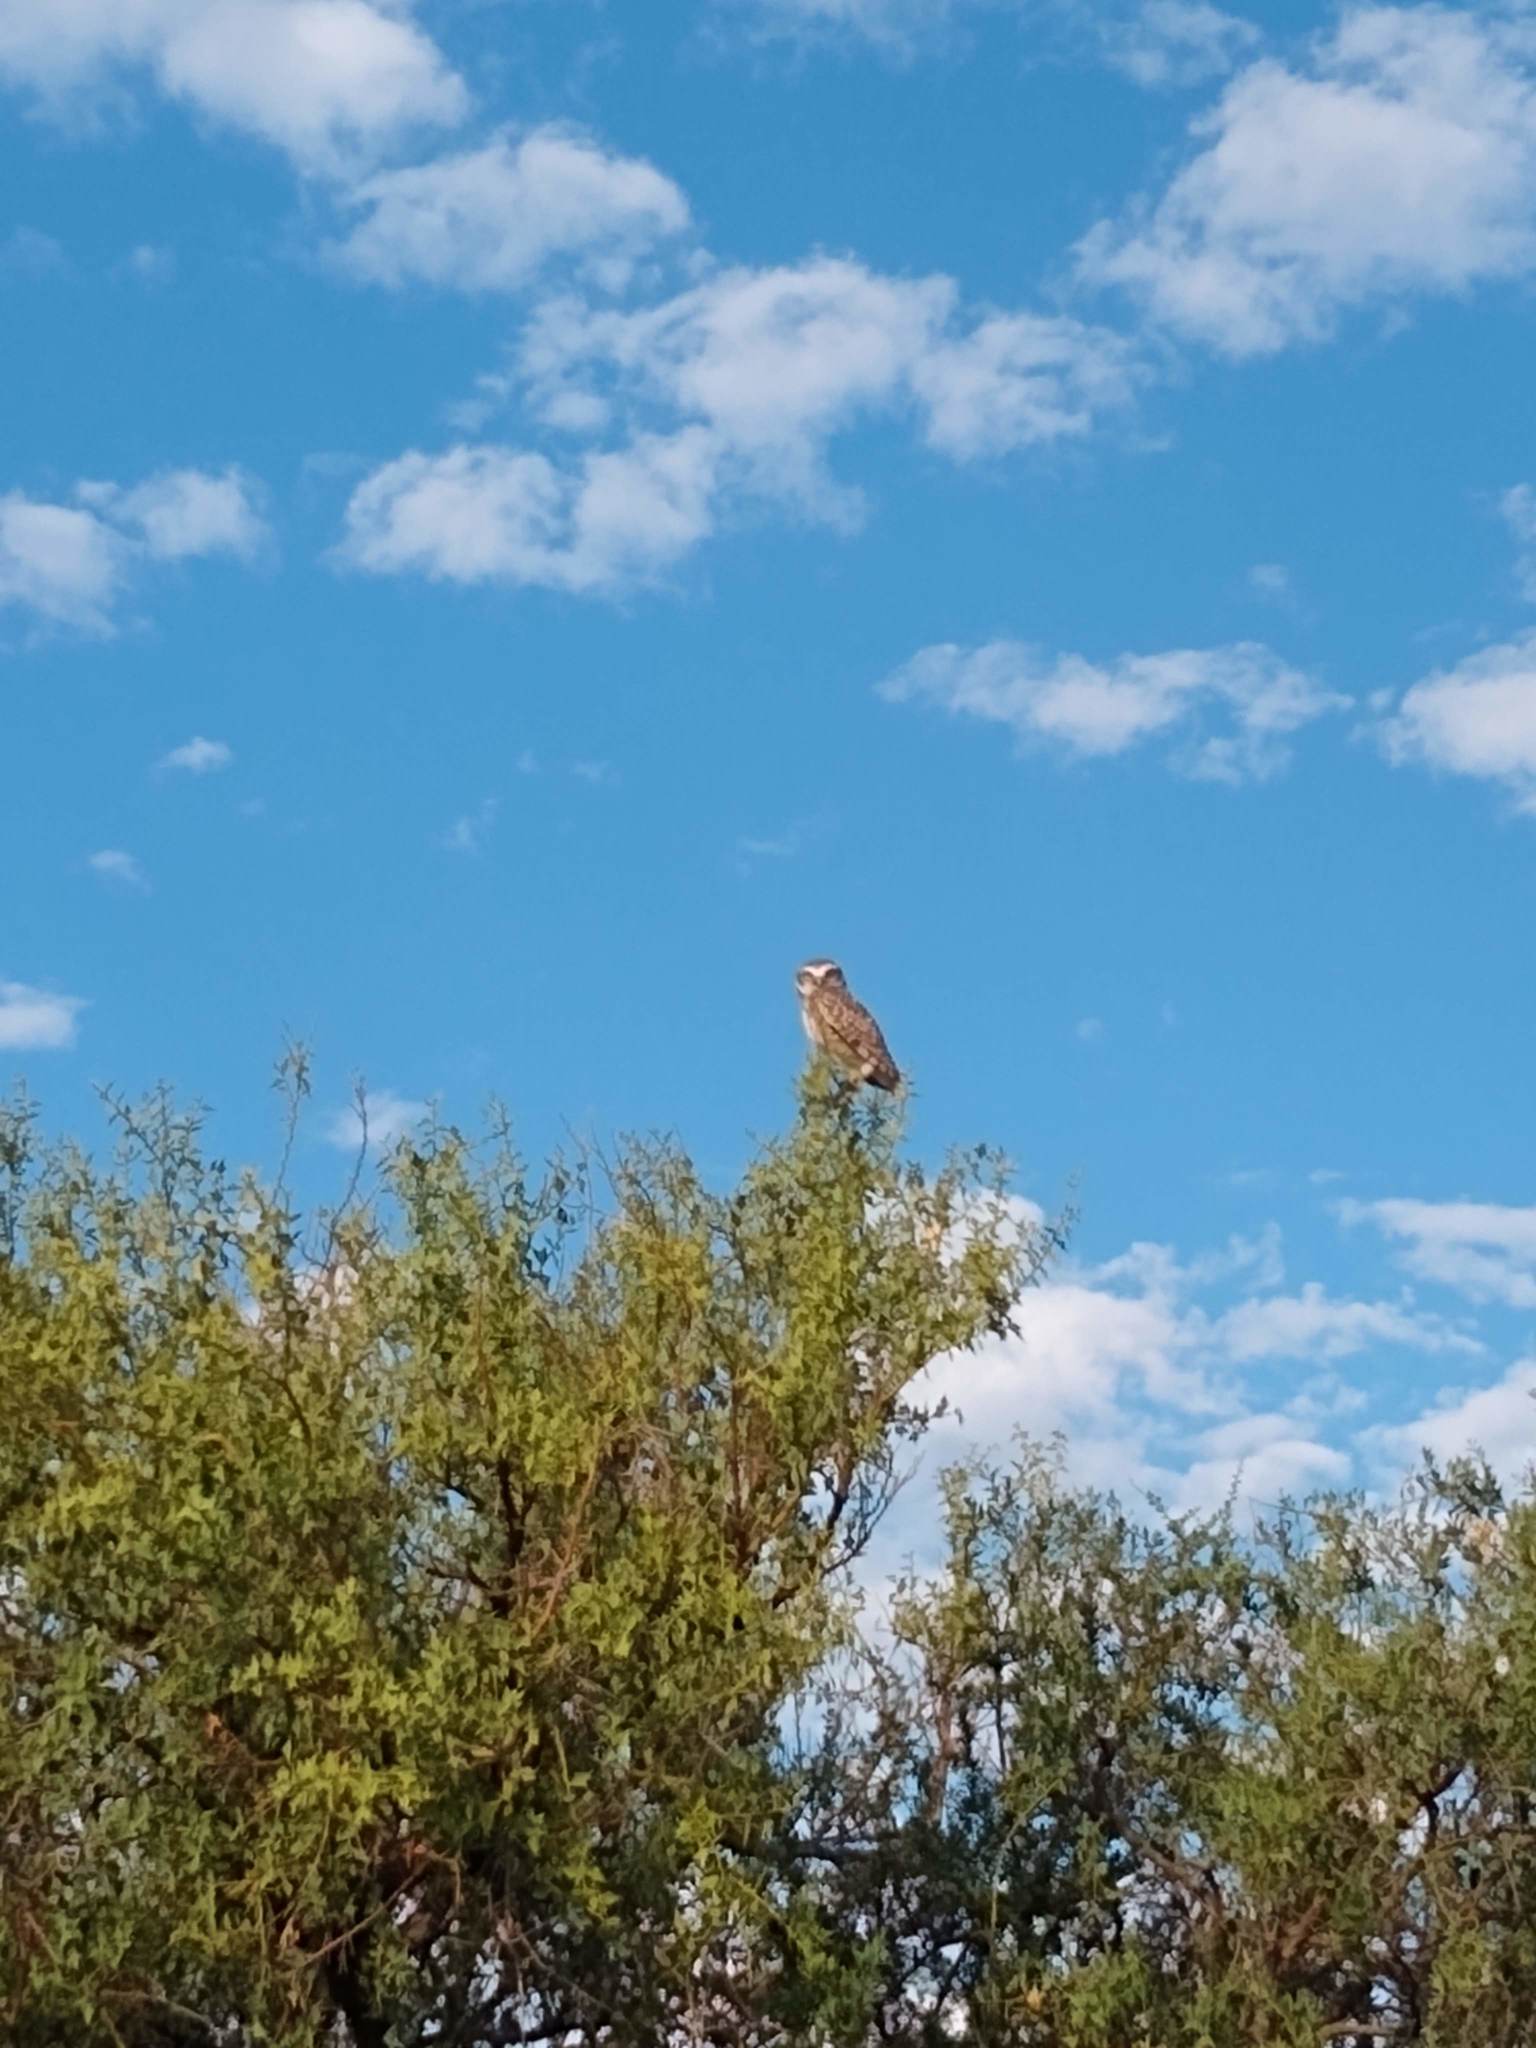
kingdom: Animalia
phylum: Chordata
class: Aves
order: Strigiformes
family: Strigidae
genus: Athene
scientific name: Athene cunicularia
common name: Burrowing owl
